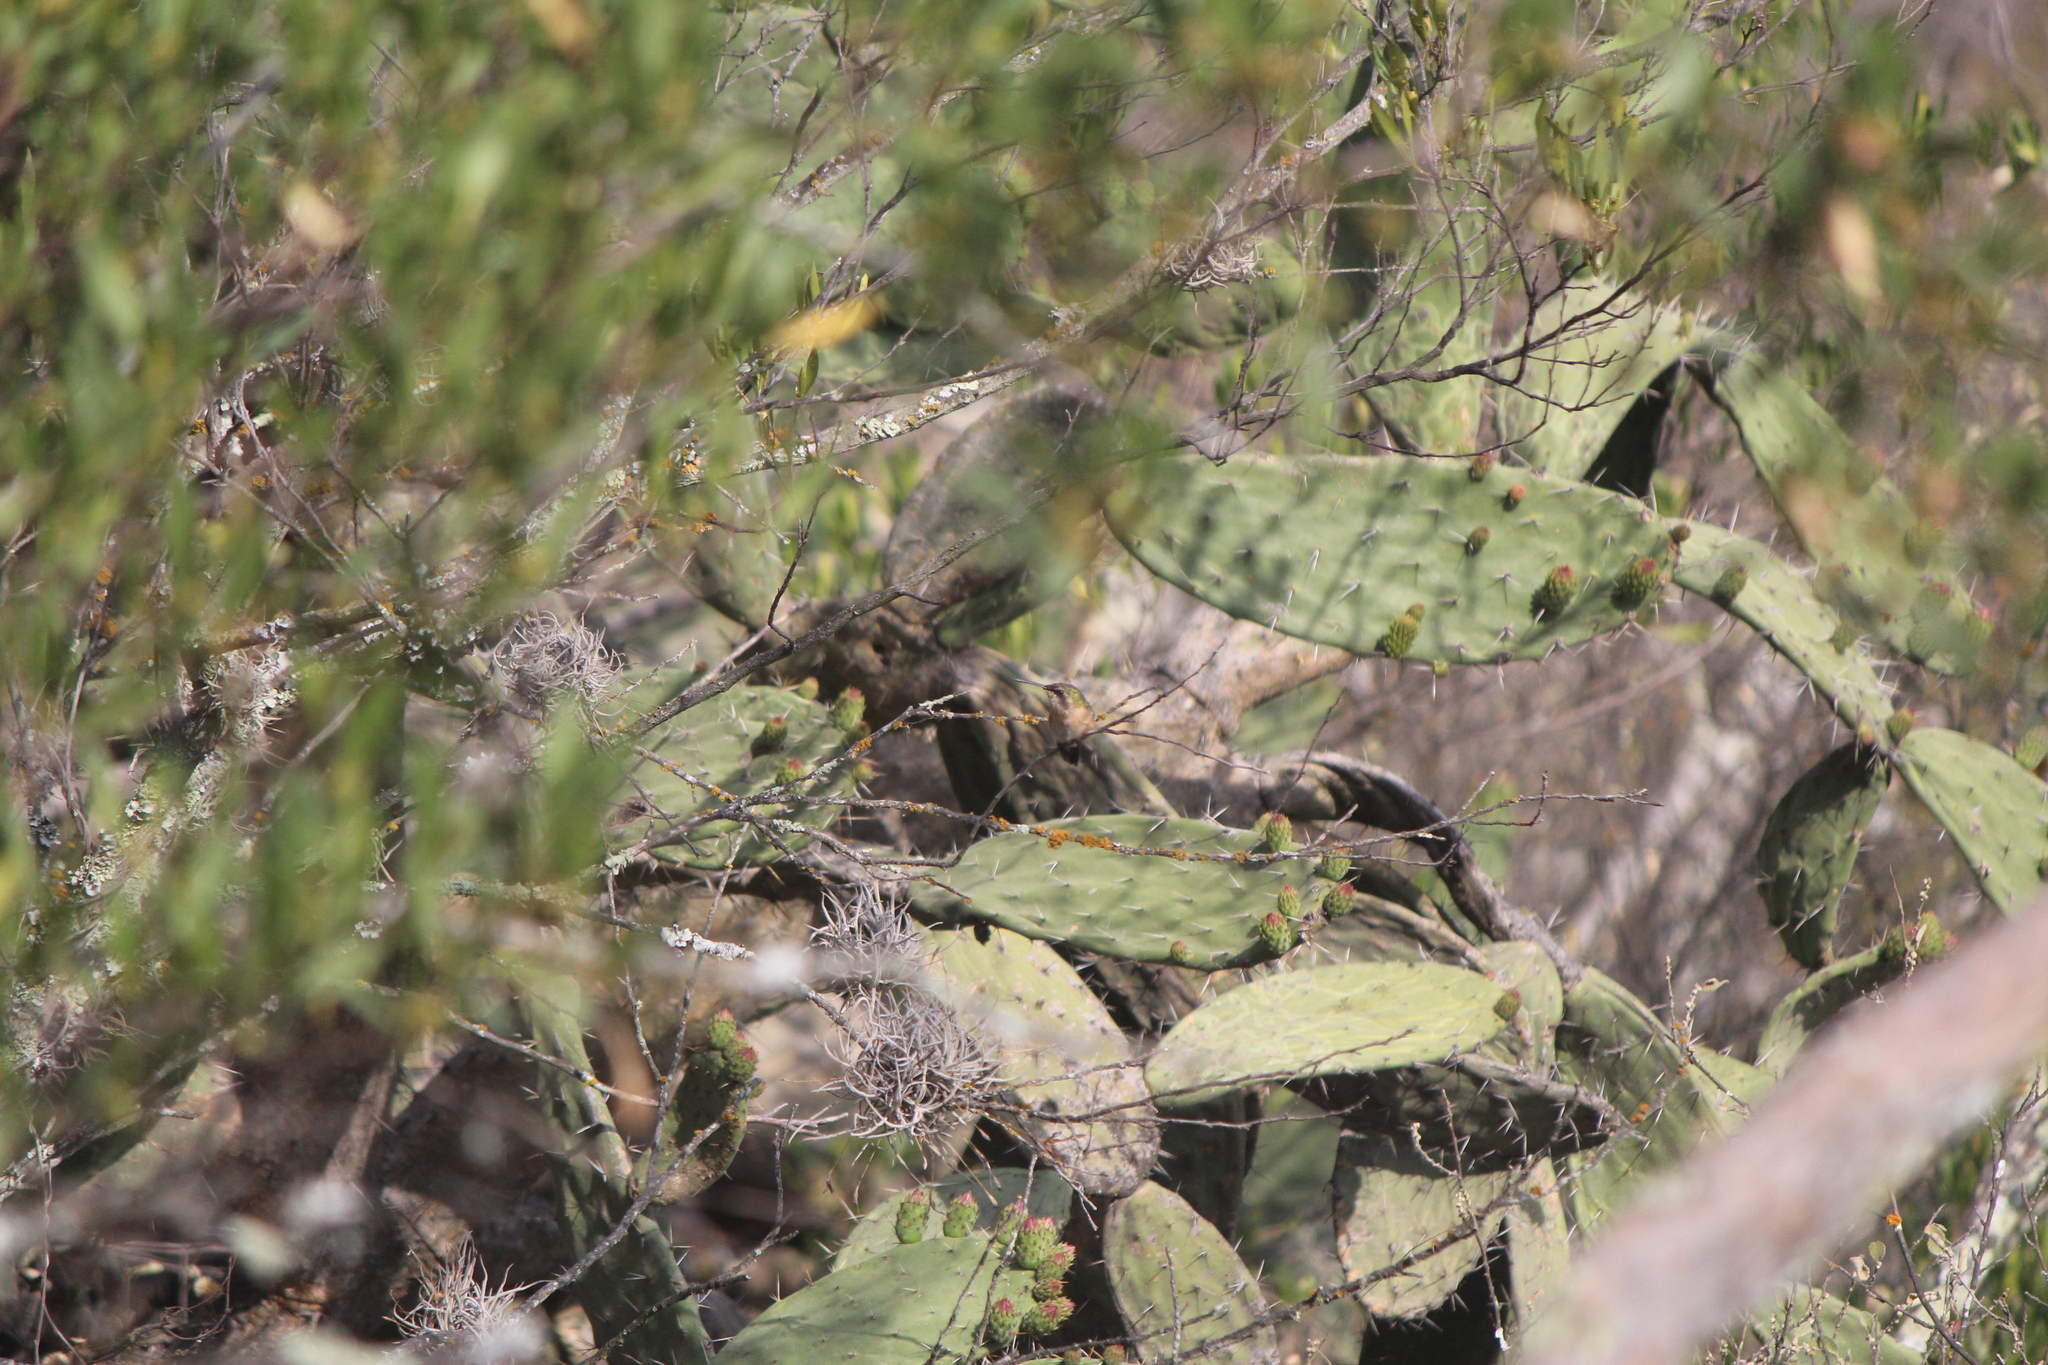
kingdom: Animalia
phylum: Chordata
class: Aves
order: Apodiformes
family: Trochilidae
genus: Calothorax
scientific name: Calothorax lucifer
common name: Lucifer sheartail
